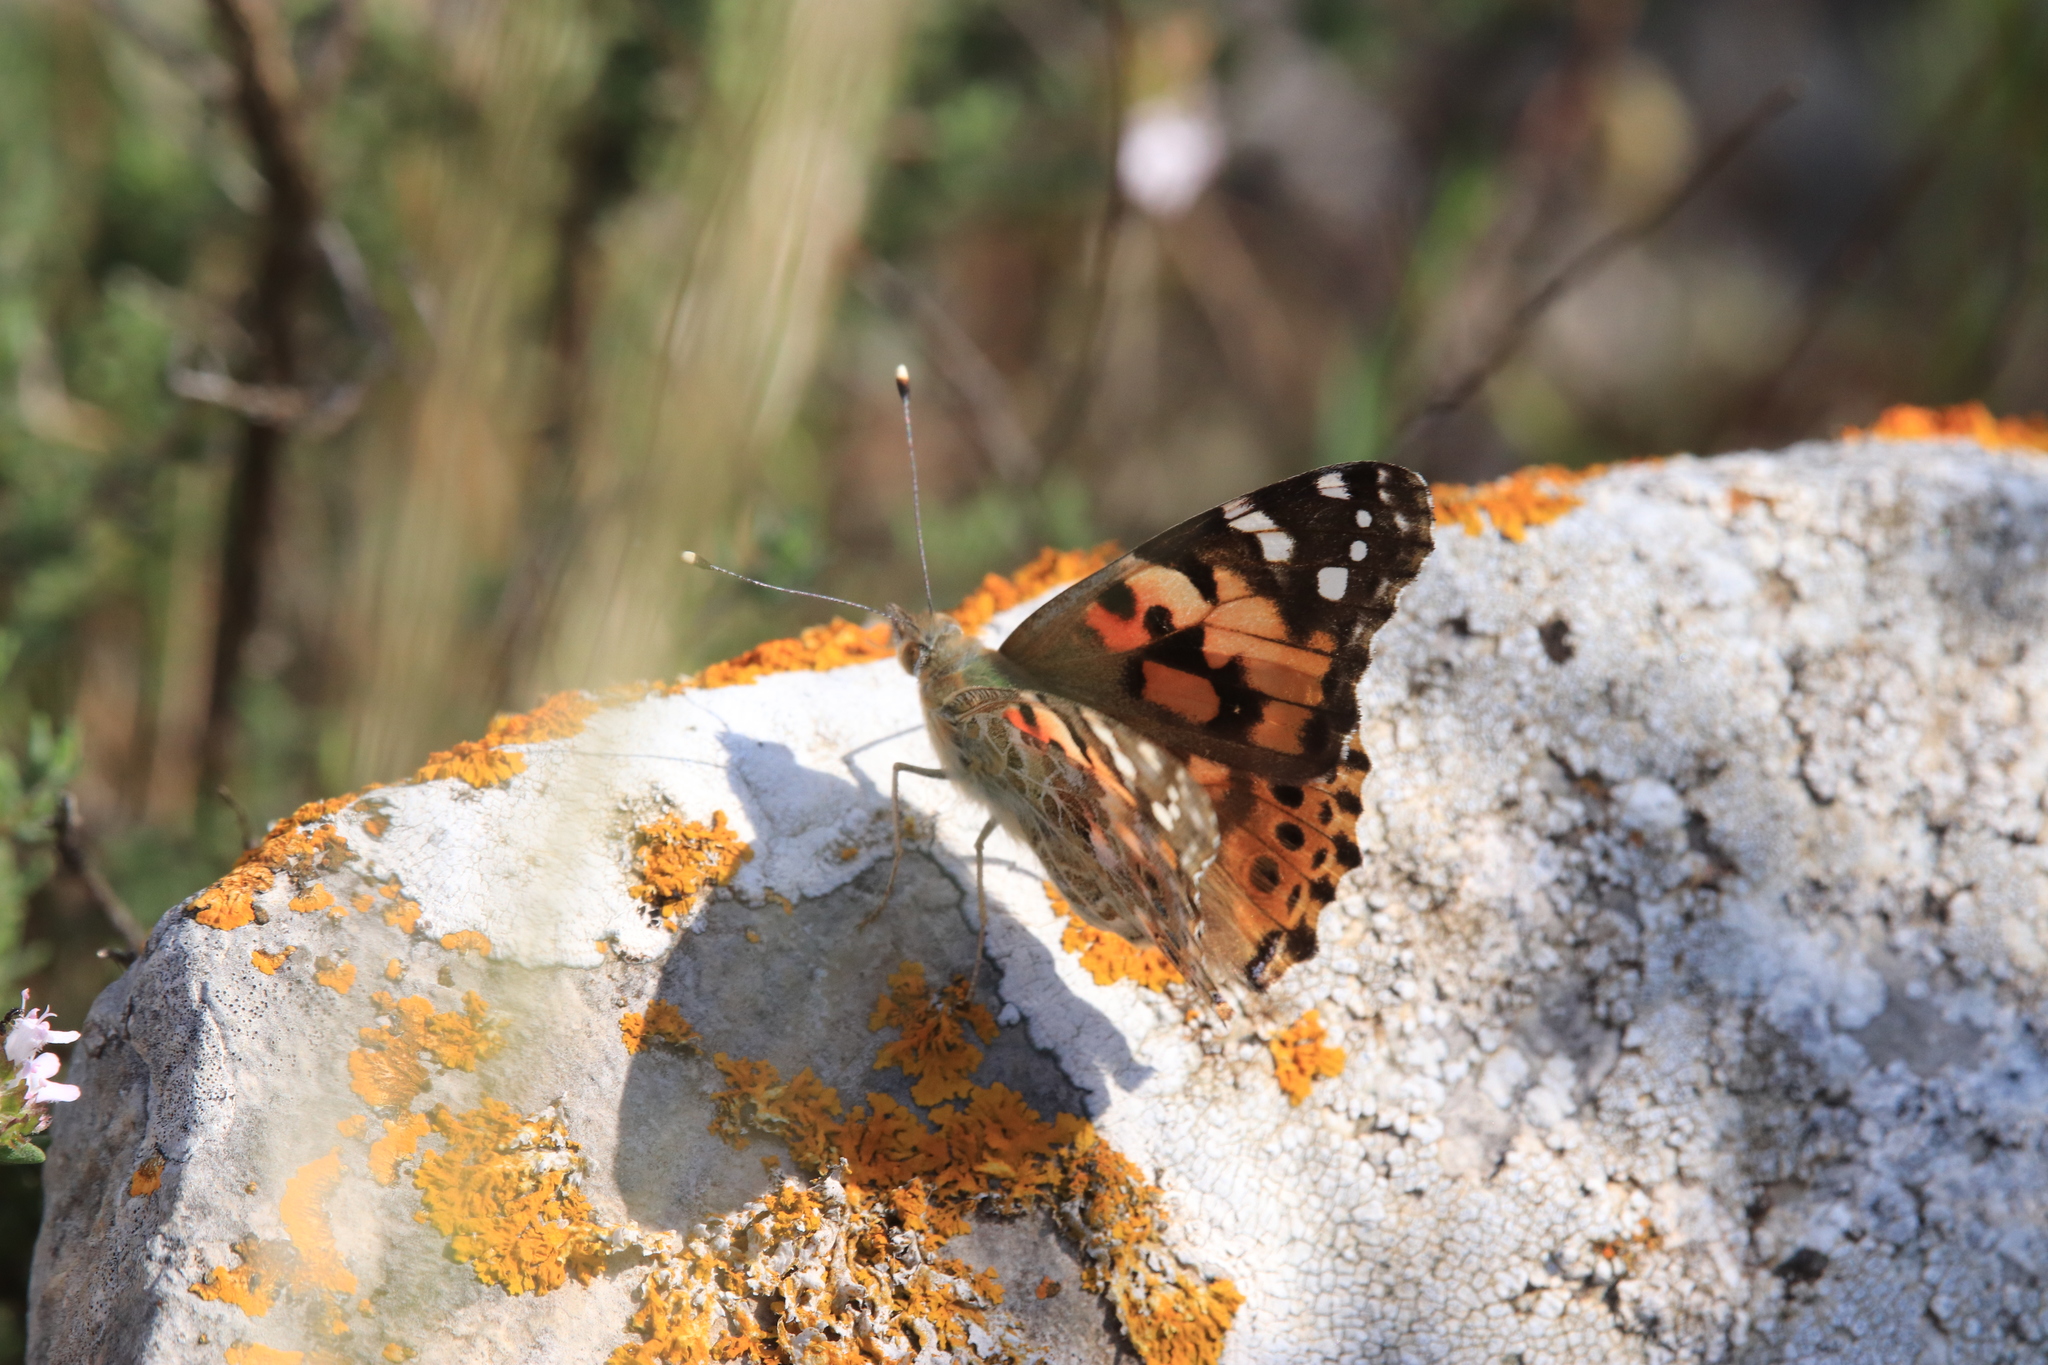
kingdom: Animalia
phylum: Arthropoda
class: Insecta
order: Lepidoptera
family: Nymphalidae
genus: Vanessa
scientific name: Vanessa cardui
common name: Painted lady
